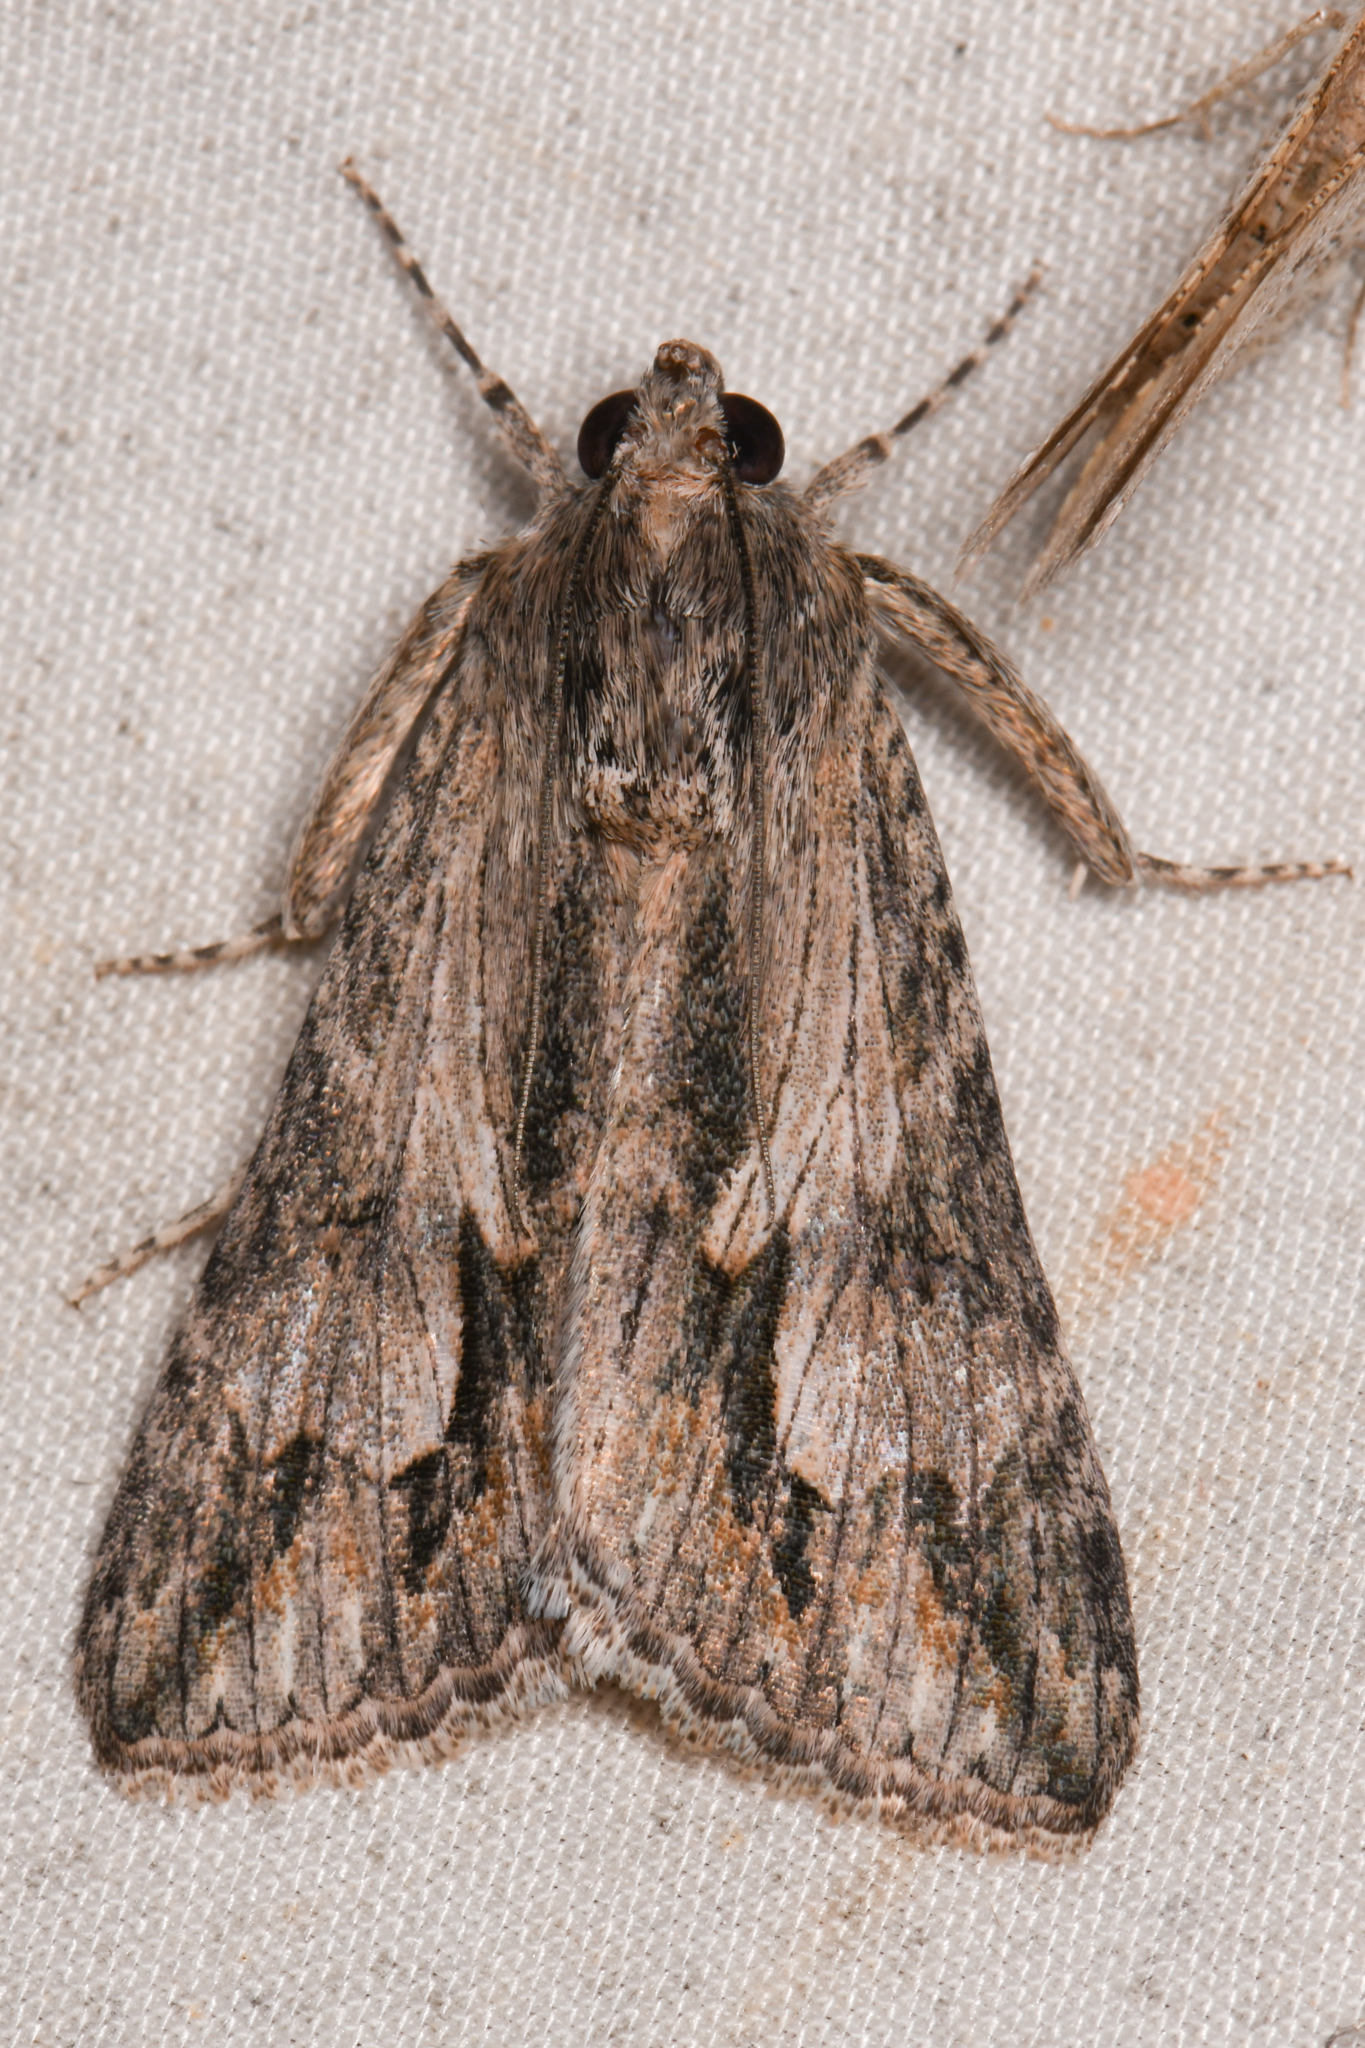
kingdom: Animalia
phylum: Arthropoda
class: Insecta
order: Lepidoptera
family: Erebidae
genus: Melipotis
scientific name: Melipotis jucunda
